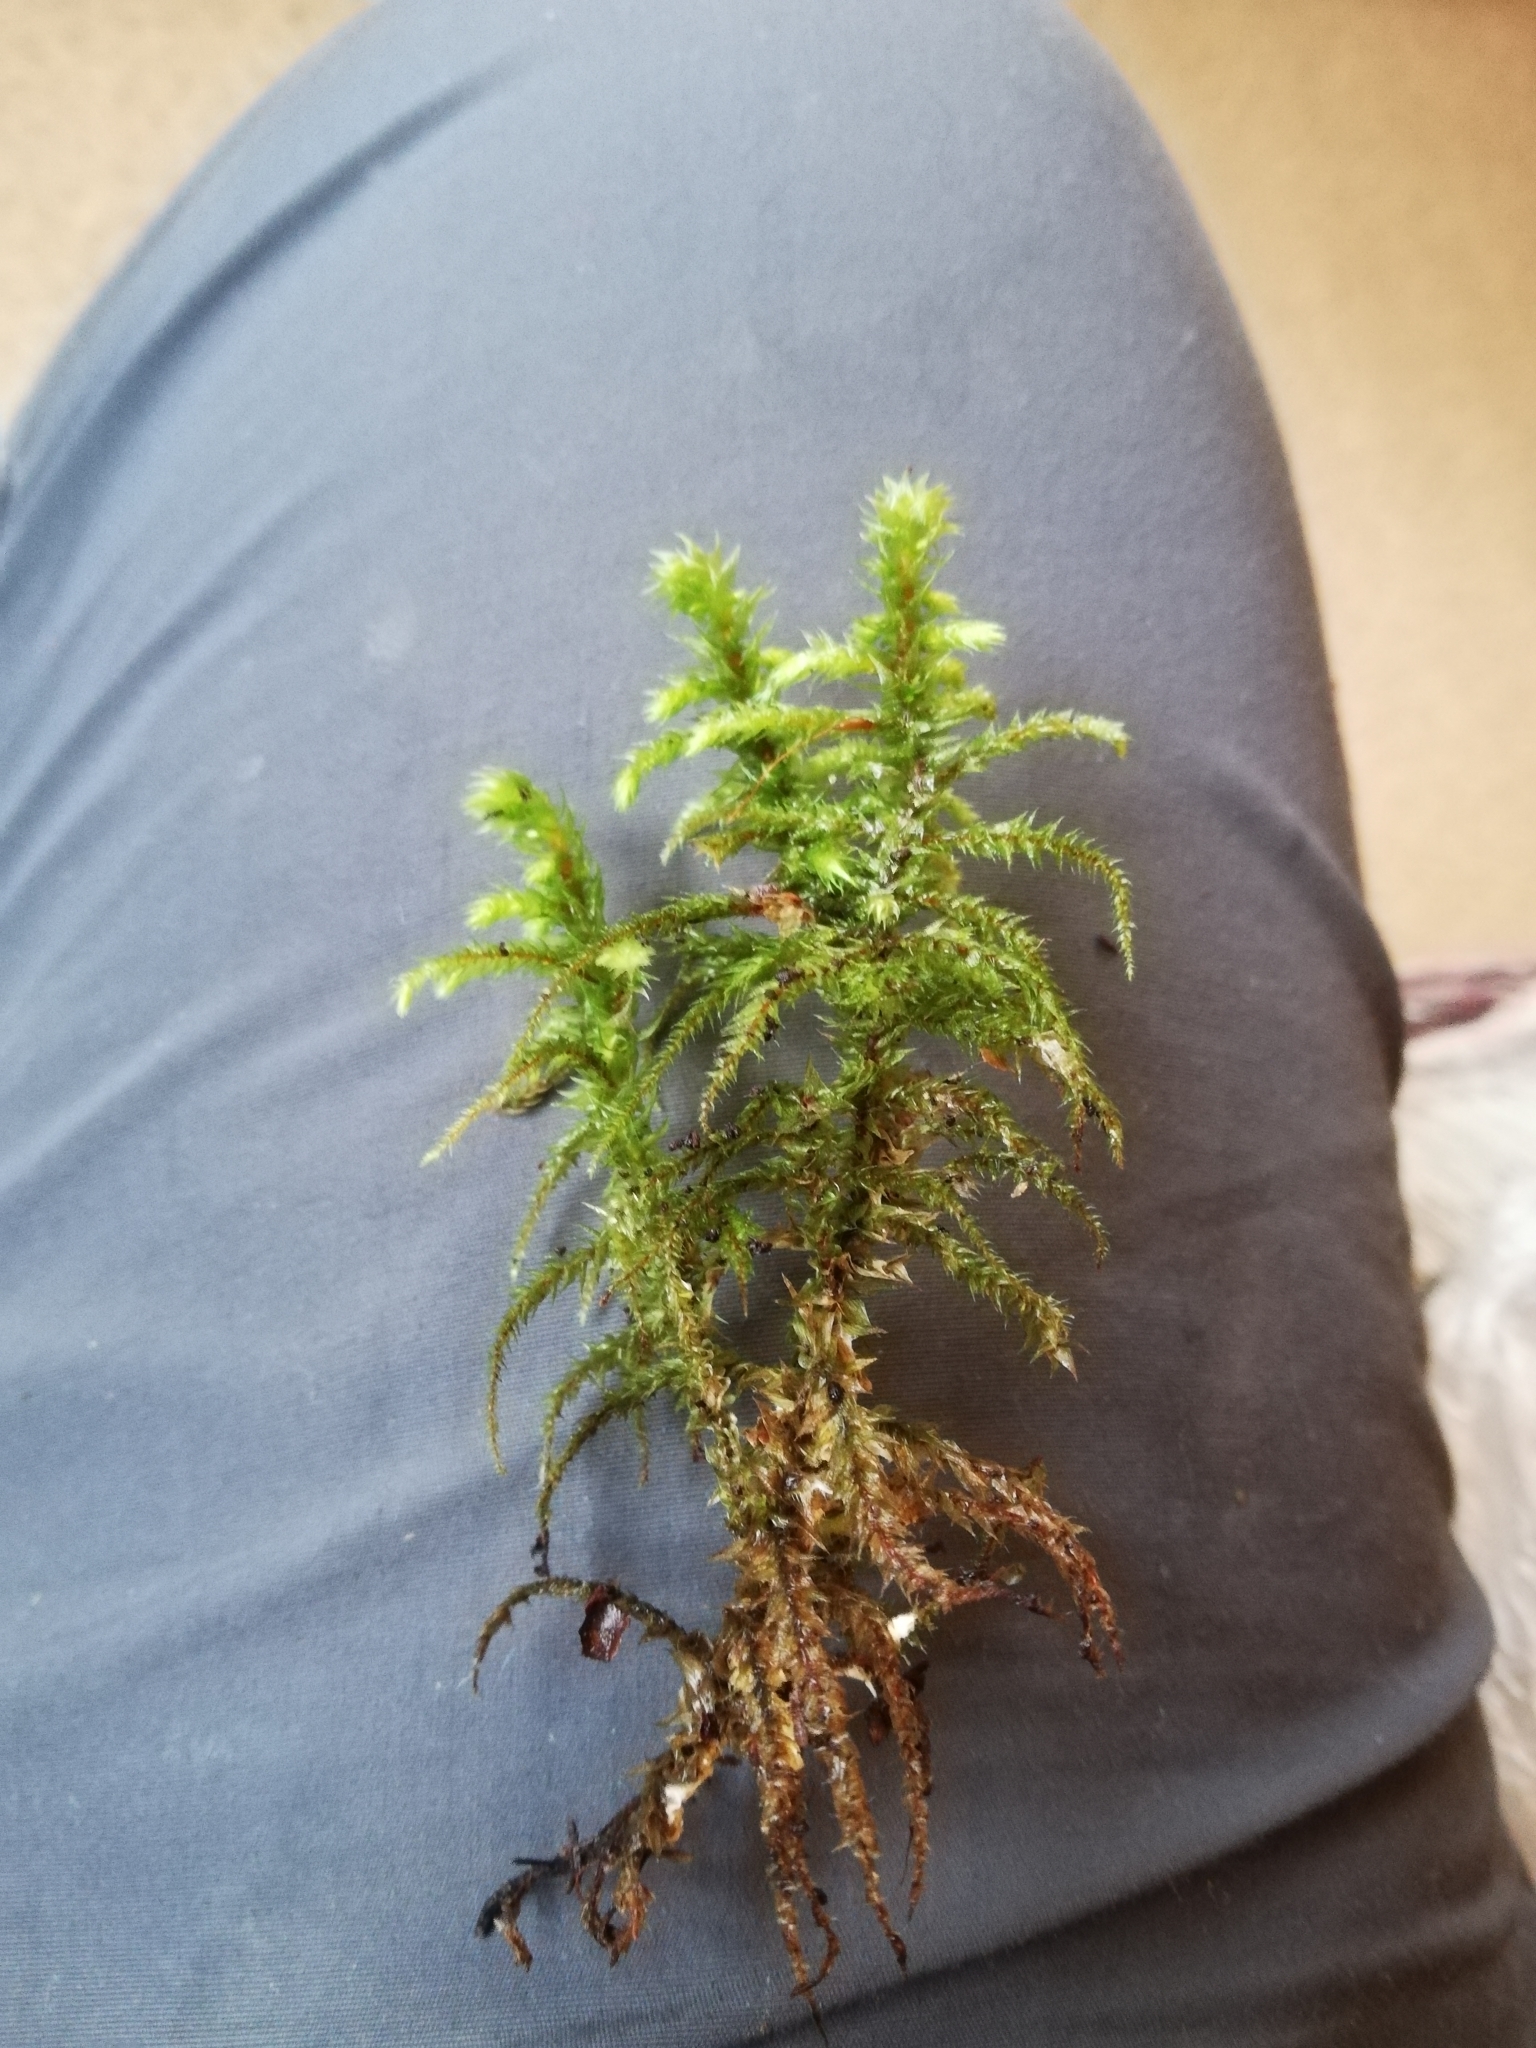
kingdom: Plantae
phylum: Bryophyta
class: Bryopsida
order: Hypnales
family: Hylocomiaceae
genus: Hylocomiadelphus
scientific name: Hylocomiadelphus triquetrus
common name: Rough goose neck moss
